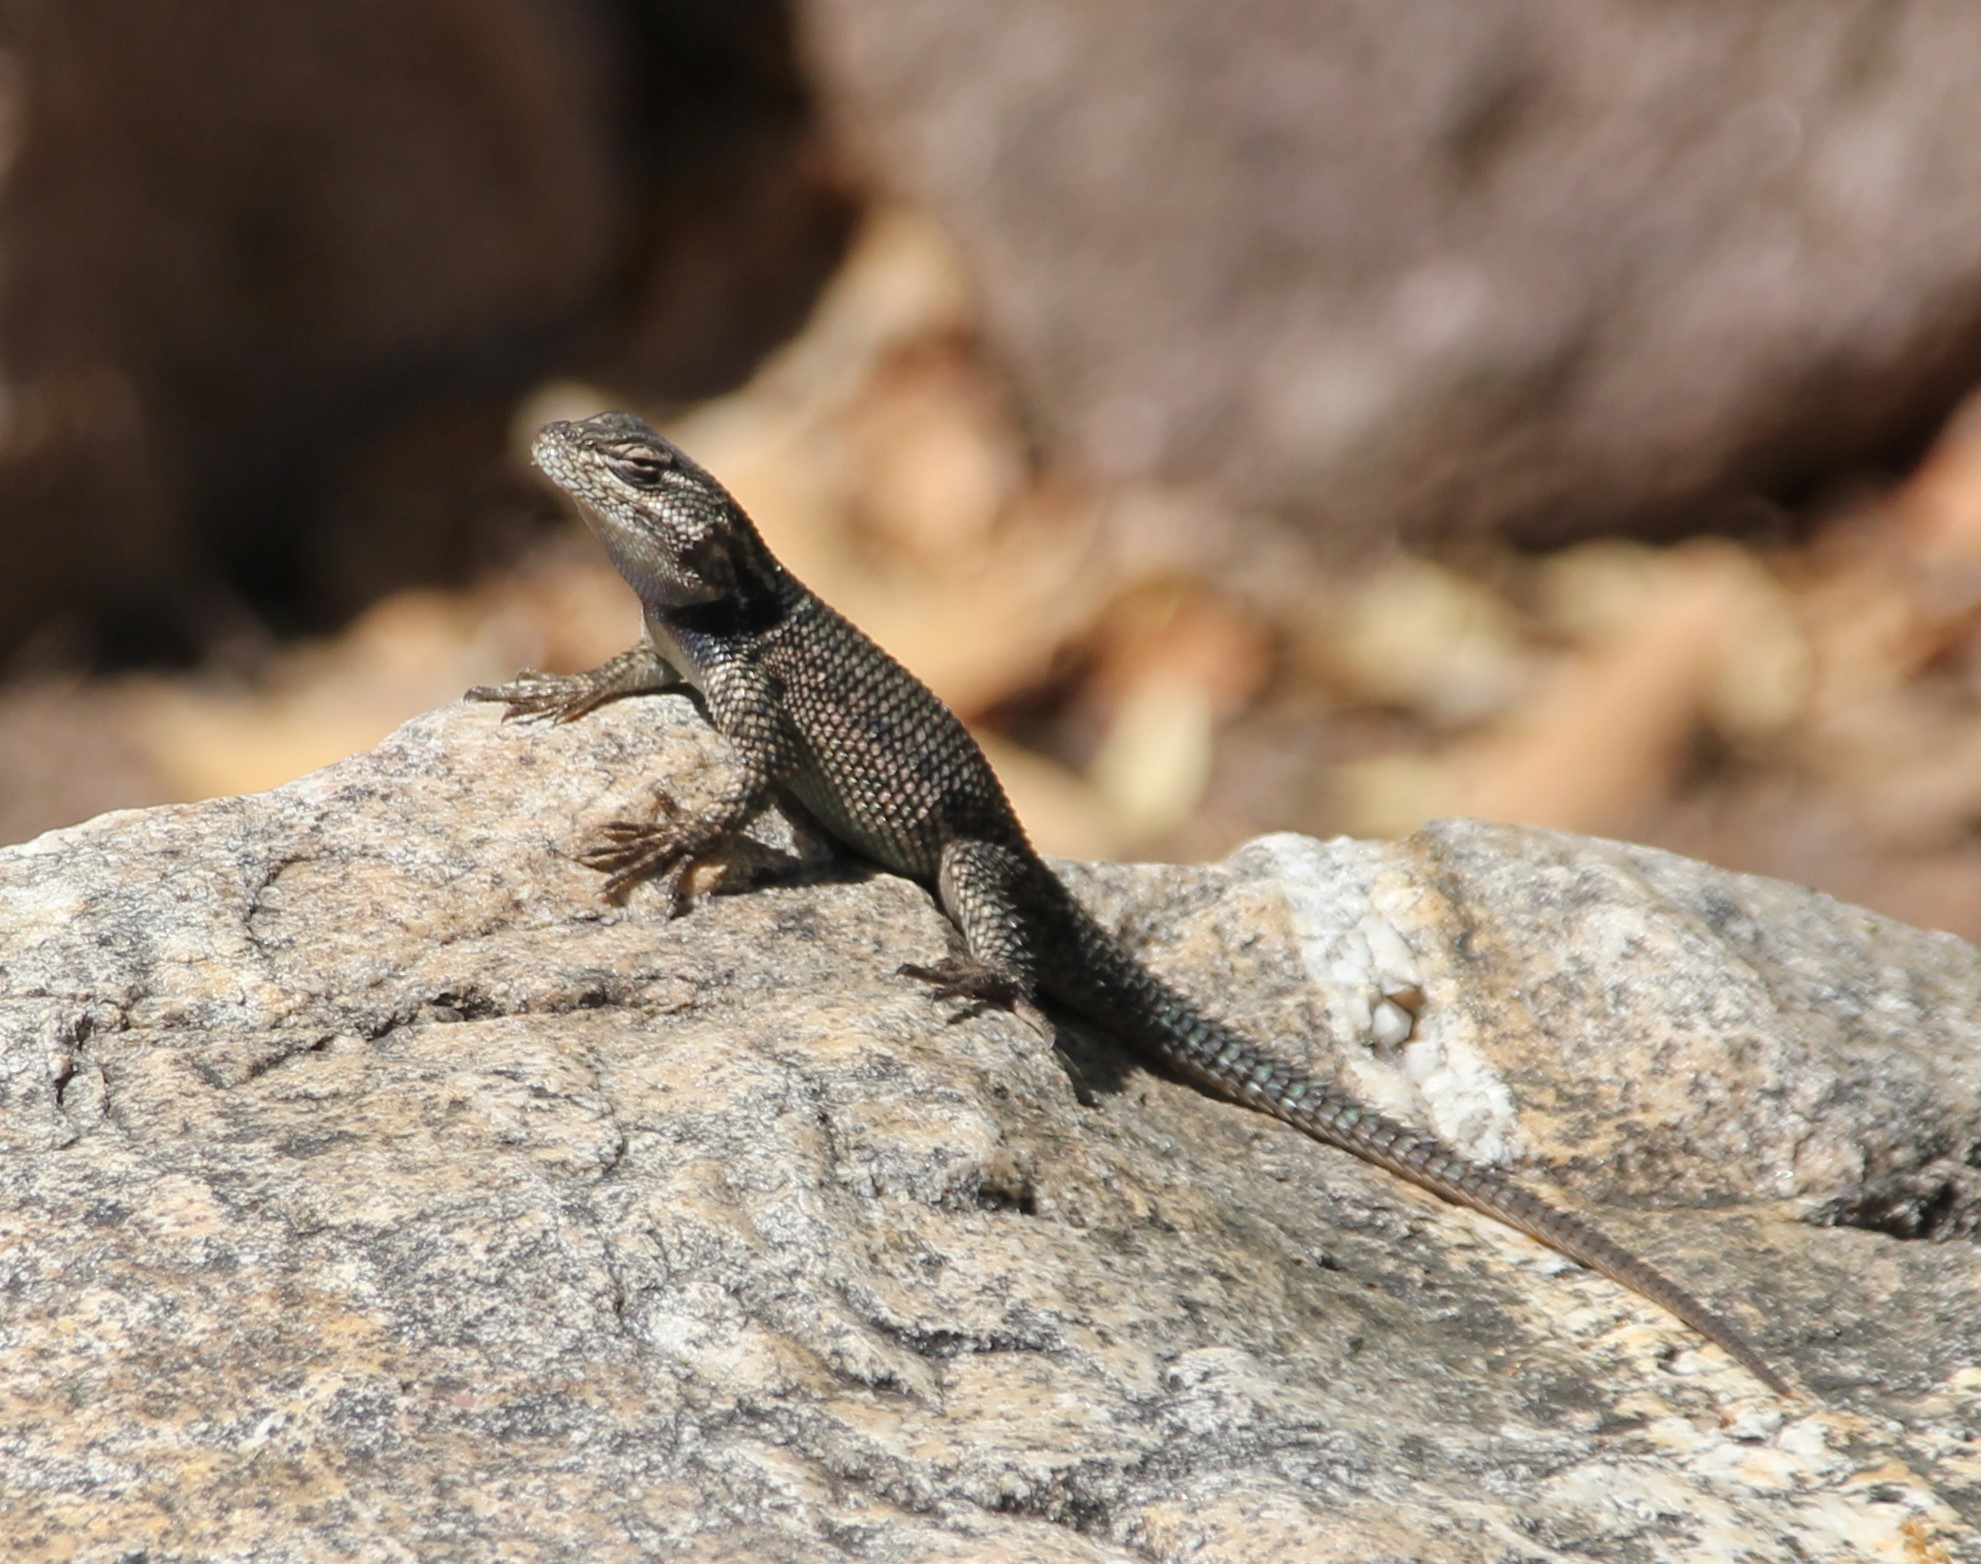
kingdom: Animalia
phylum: Chordata
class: Squamata
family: Phrynosomatidae
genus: Sceloporus
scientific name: Sceloporus jarrovii
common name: Yarrow's spiny lizard
